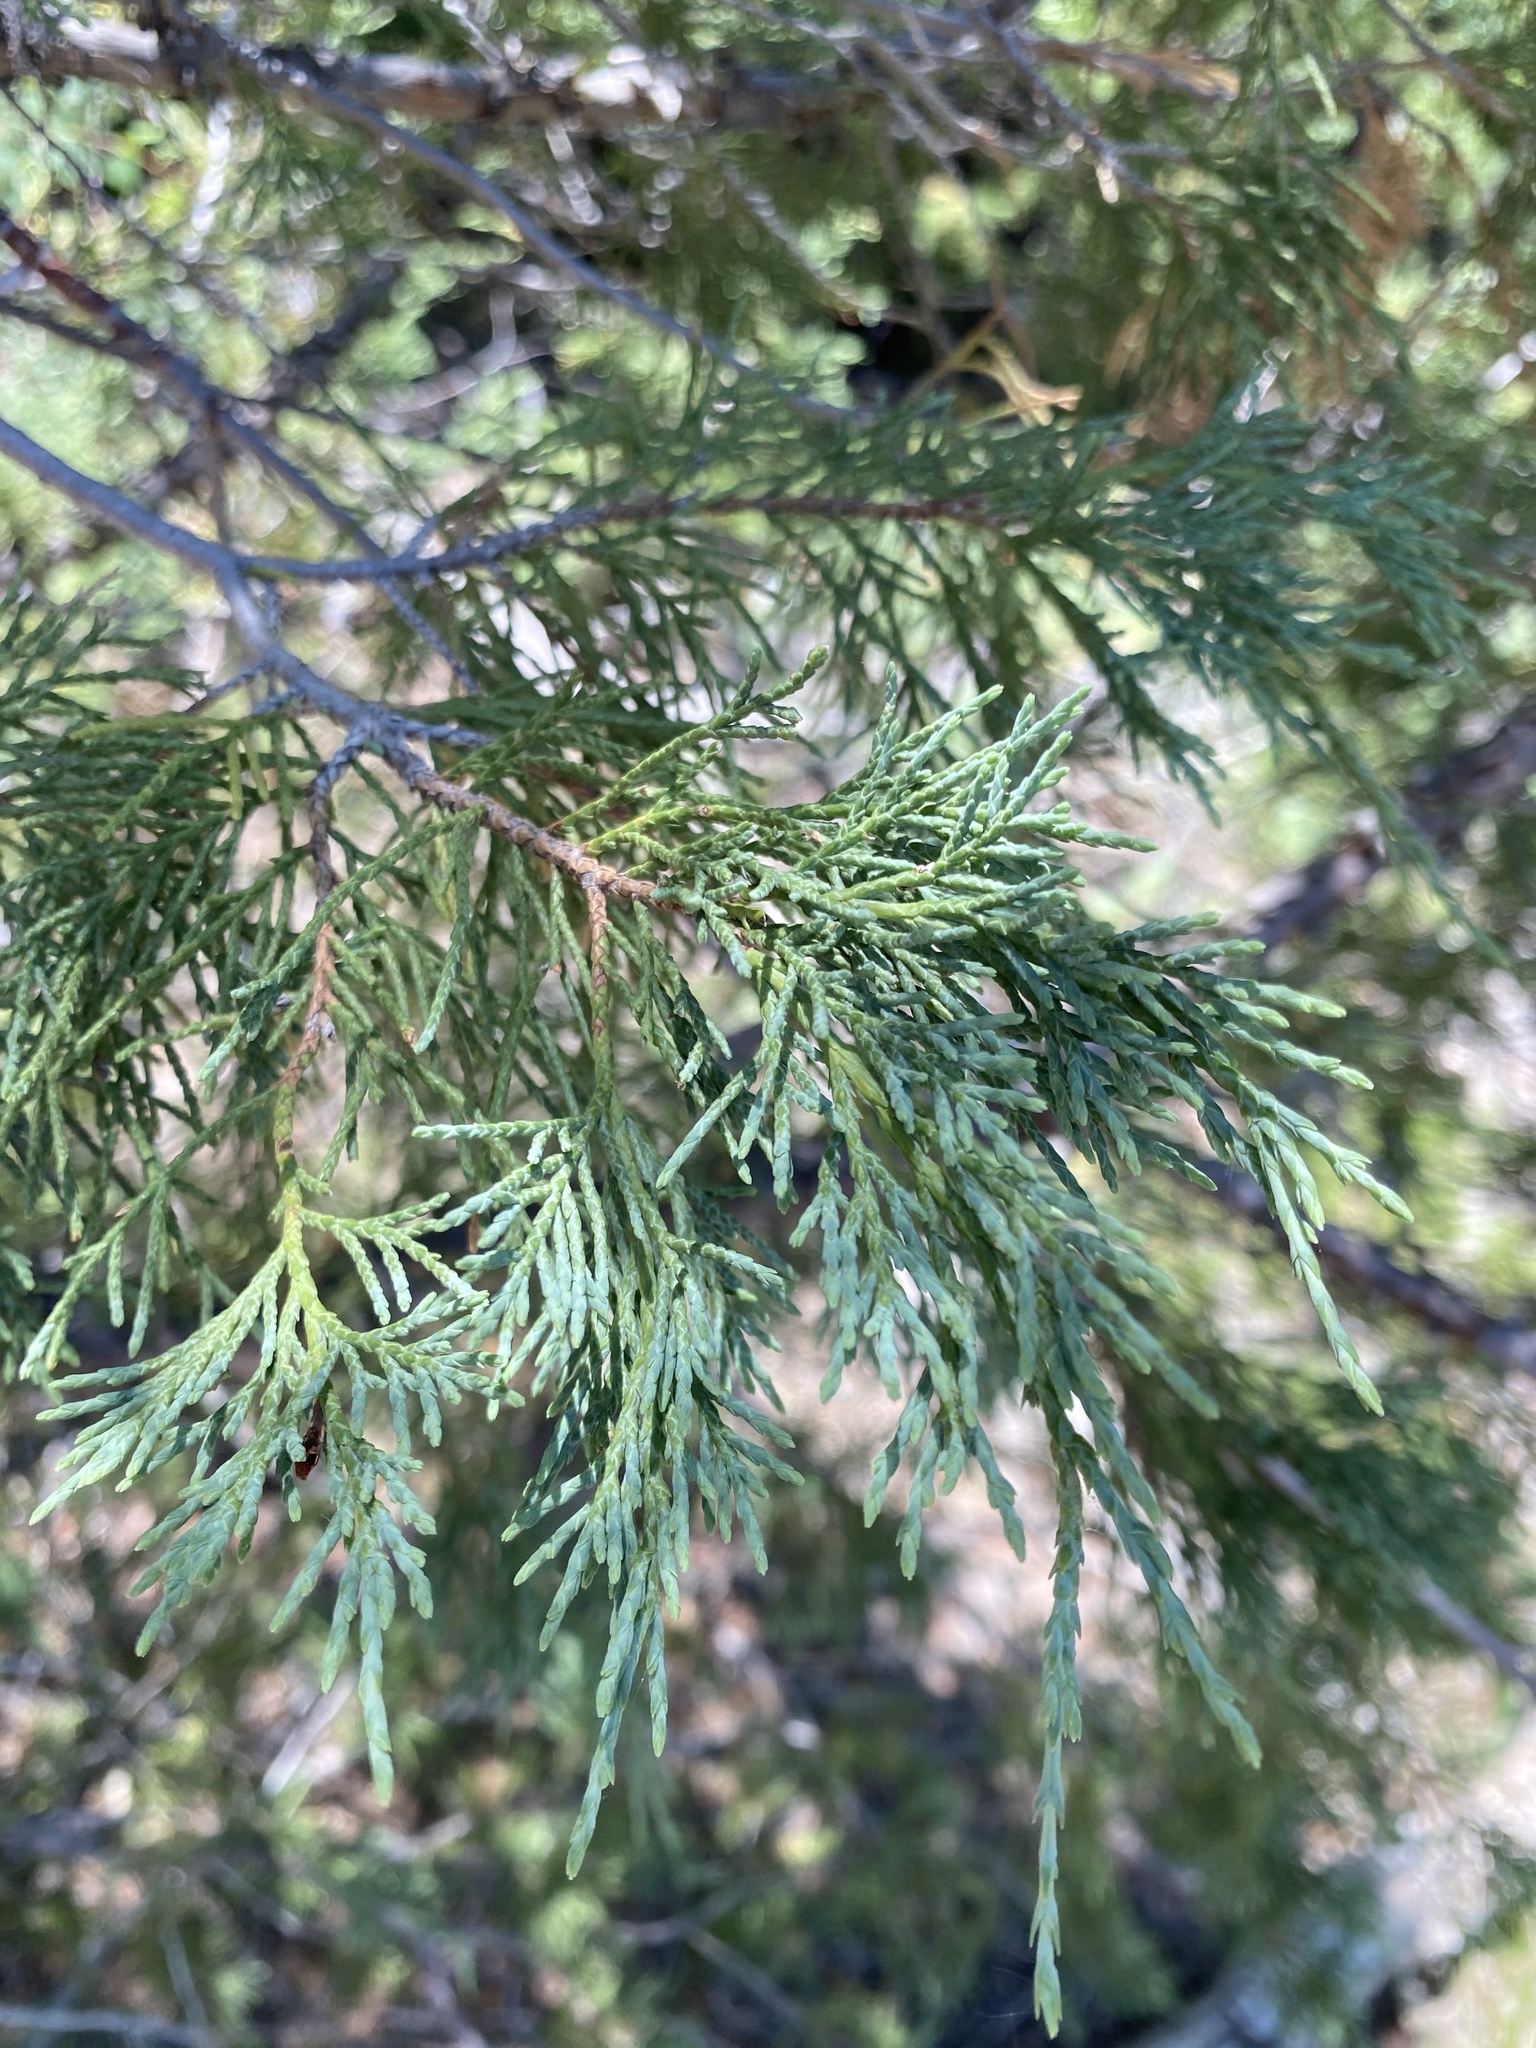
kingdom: Plantae
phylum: Tracheophyta
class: Pinopsida
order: Pinales
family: Cupressaceae
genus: Juniperus
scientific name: Juniperus scopulorum
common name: Rocky mountain juniper
